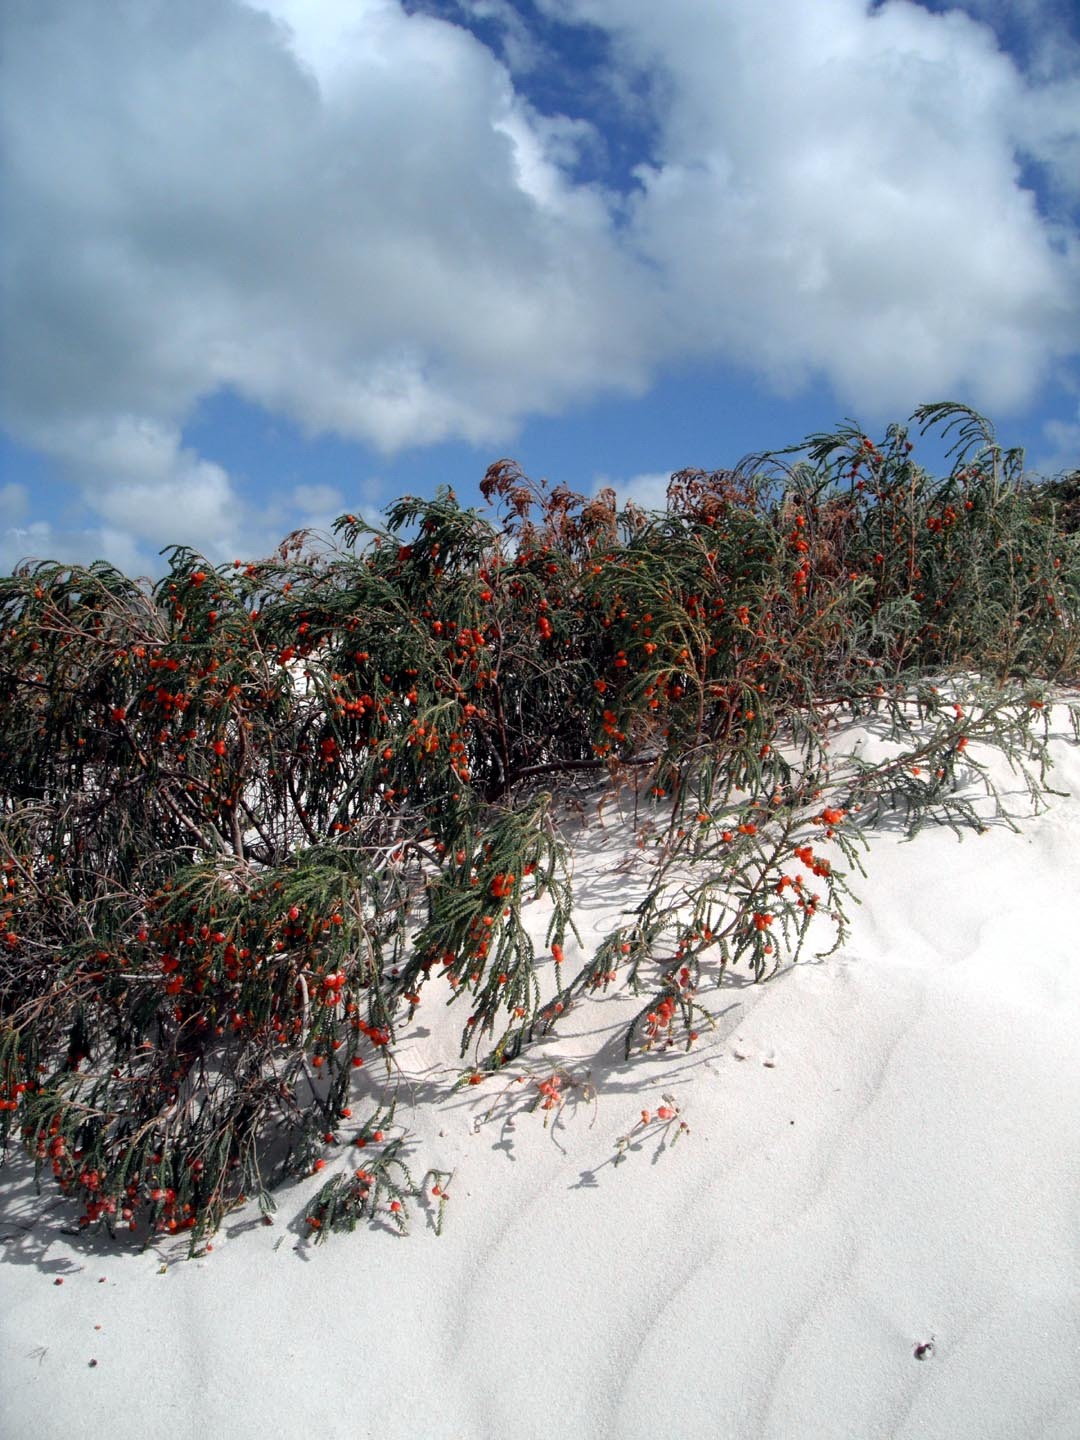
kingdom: Plantae
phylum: Tracheophyta
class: Magnoliopsida
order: Malvales
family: Thymelaeaceae
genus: Passerina
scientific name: Passerina ericoides
